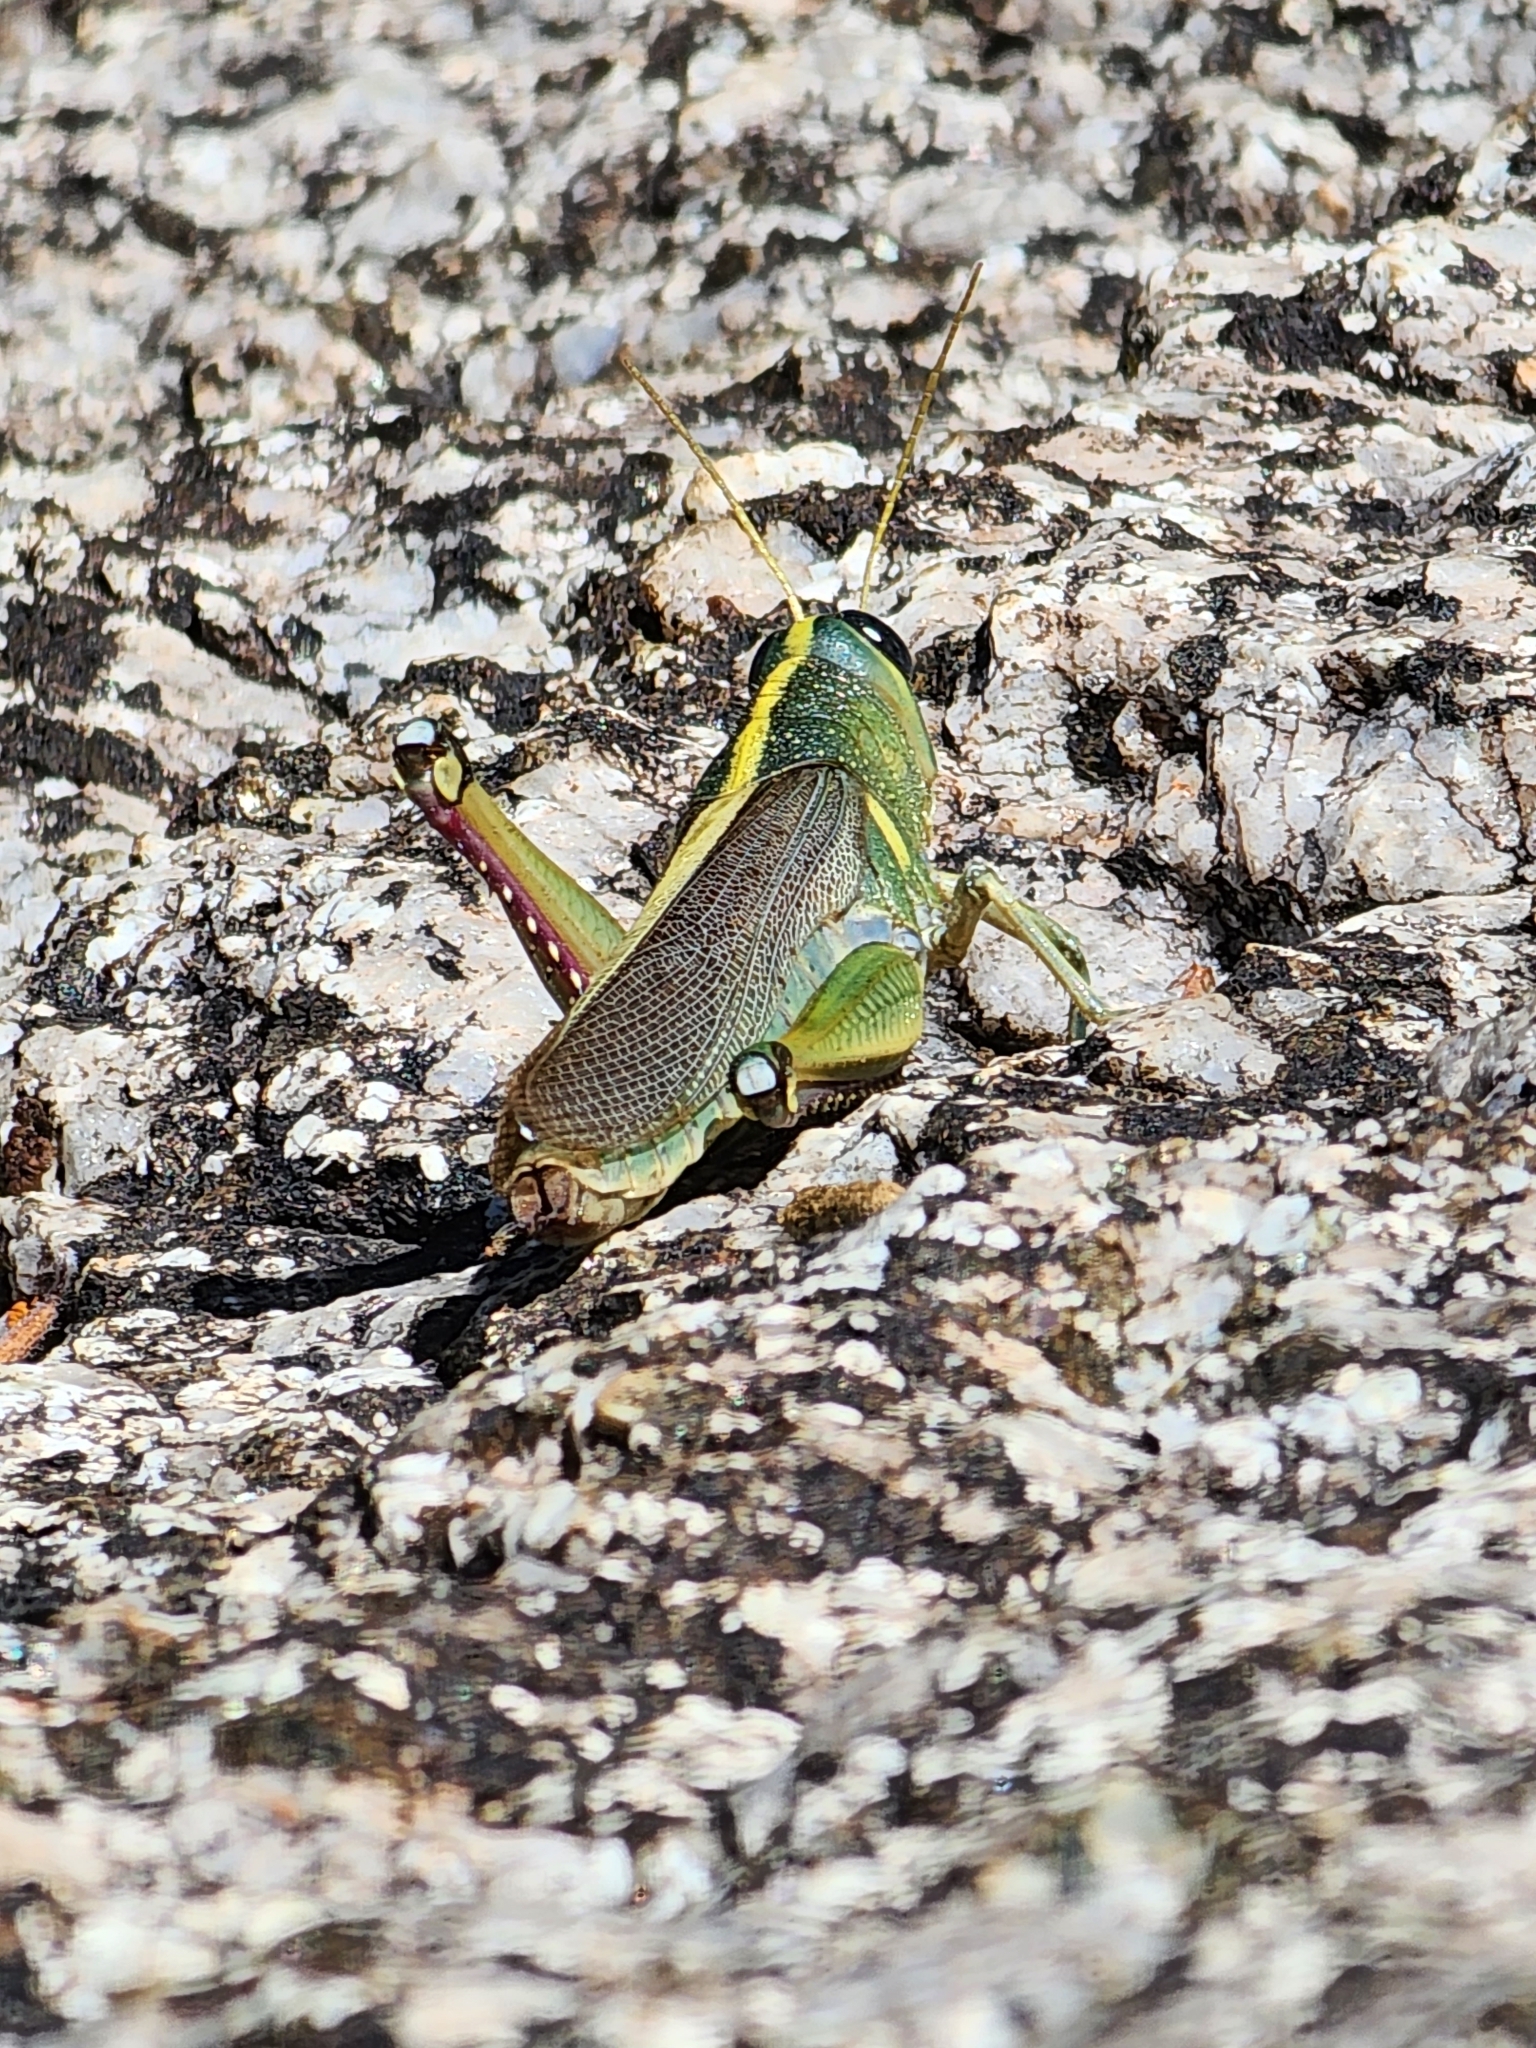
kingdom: Animalia
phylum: Arthropoda
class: Insecta
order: Orthoptera
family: Acrididae
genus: Schistocerca
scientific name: Schistocerca lineata
